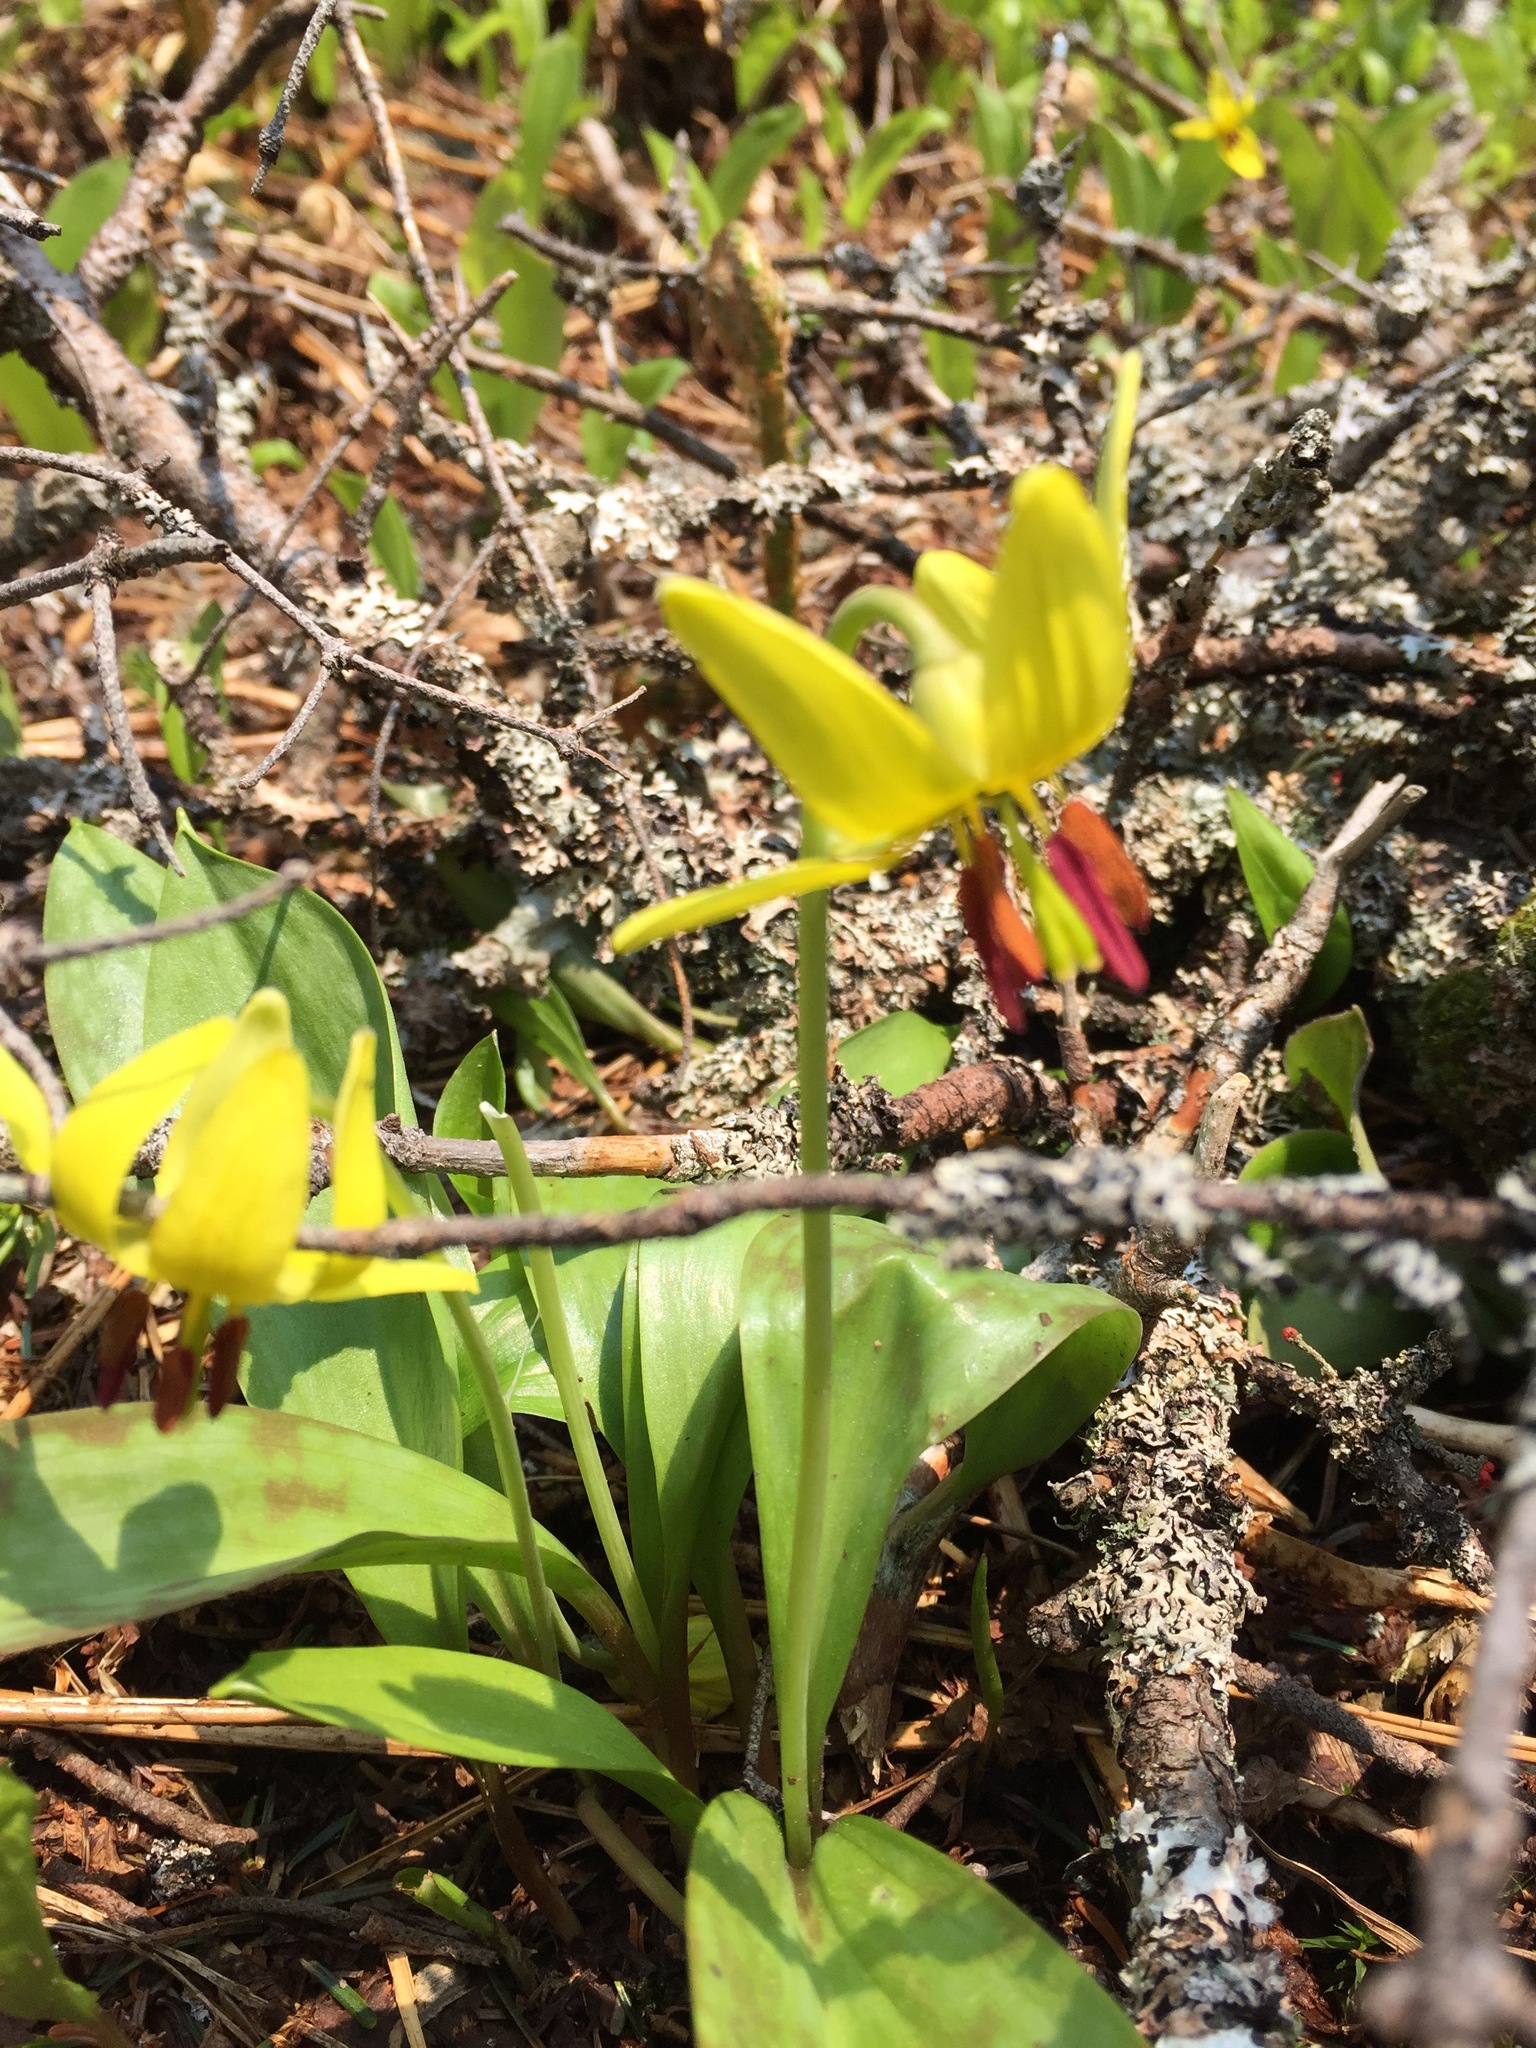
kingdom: Plantae
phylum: Tracheophyta
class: Liliopsida
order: Liliales
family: Liliaceae
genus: Erythronium
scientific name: Erythronium americanum
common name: Yellow adder's-tongue
